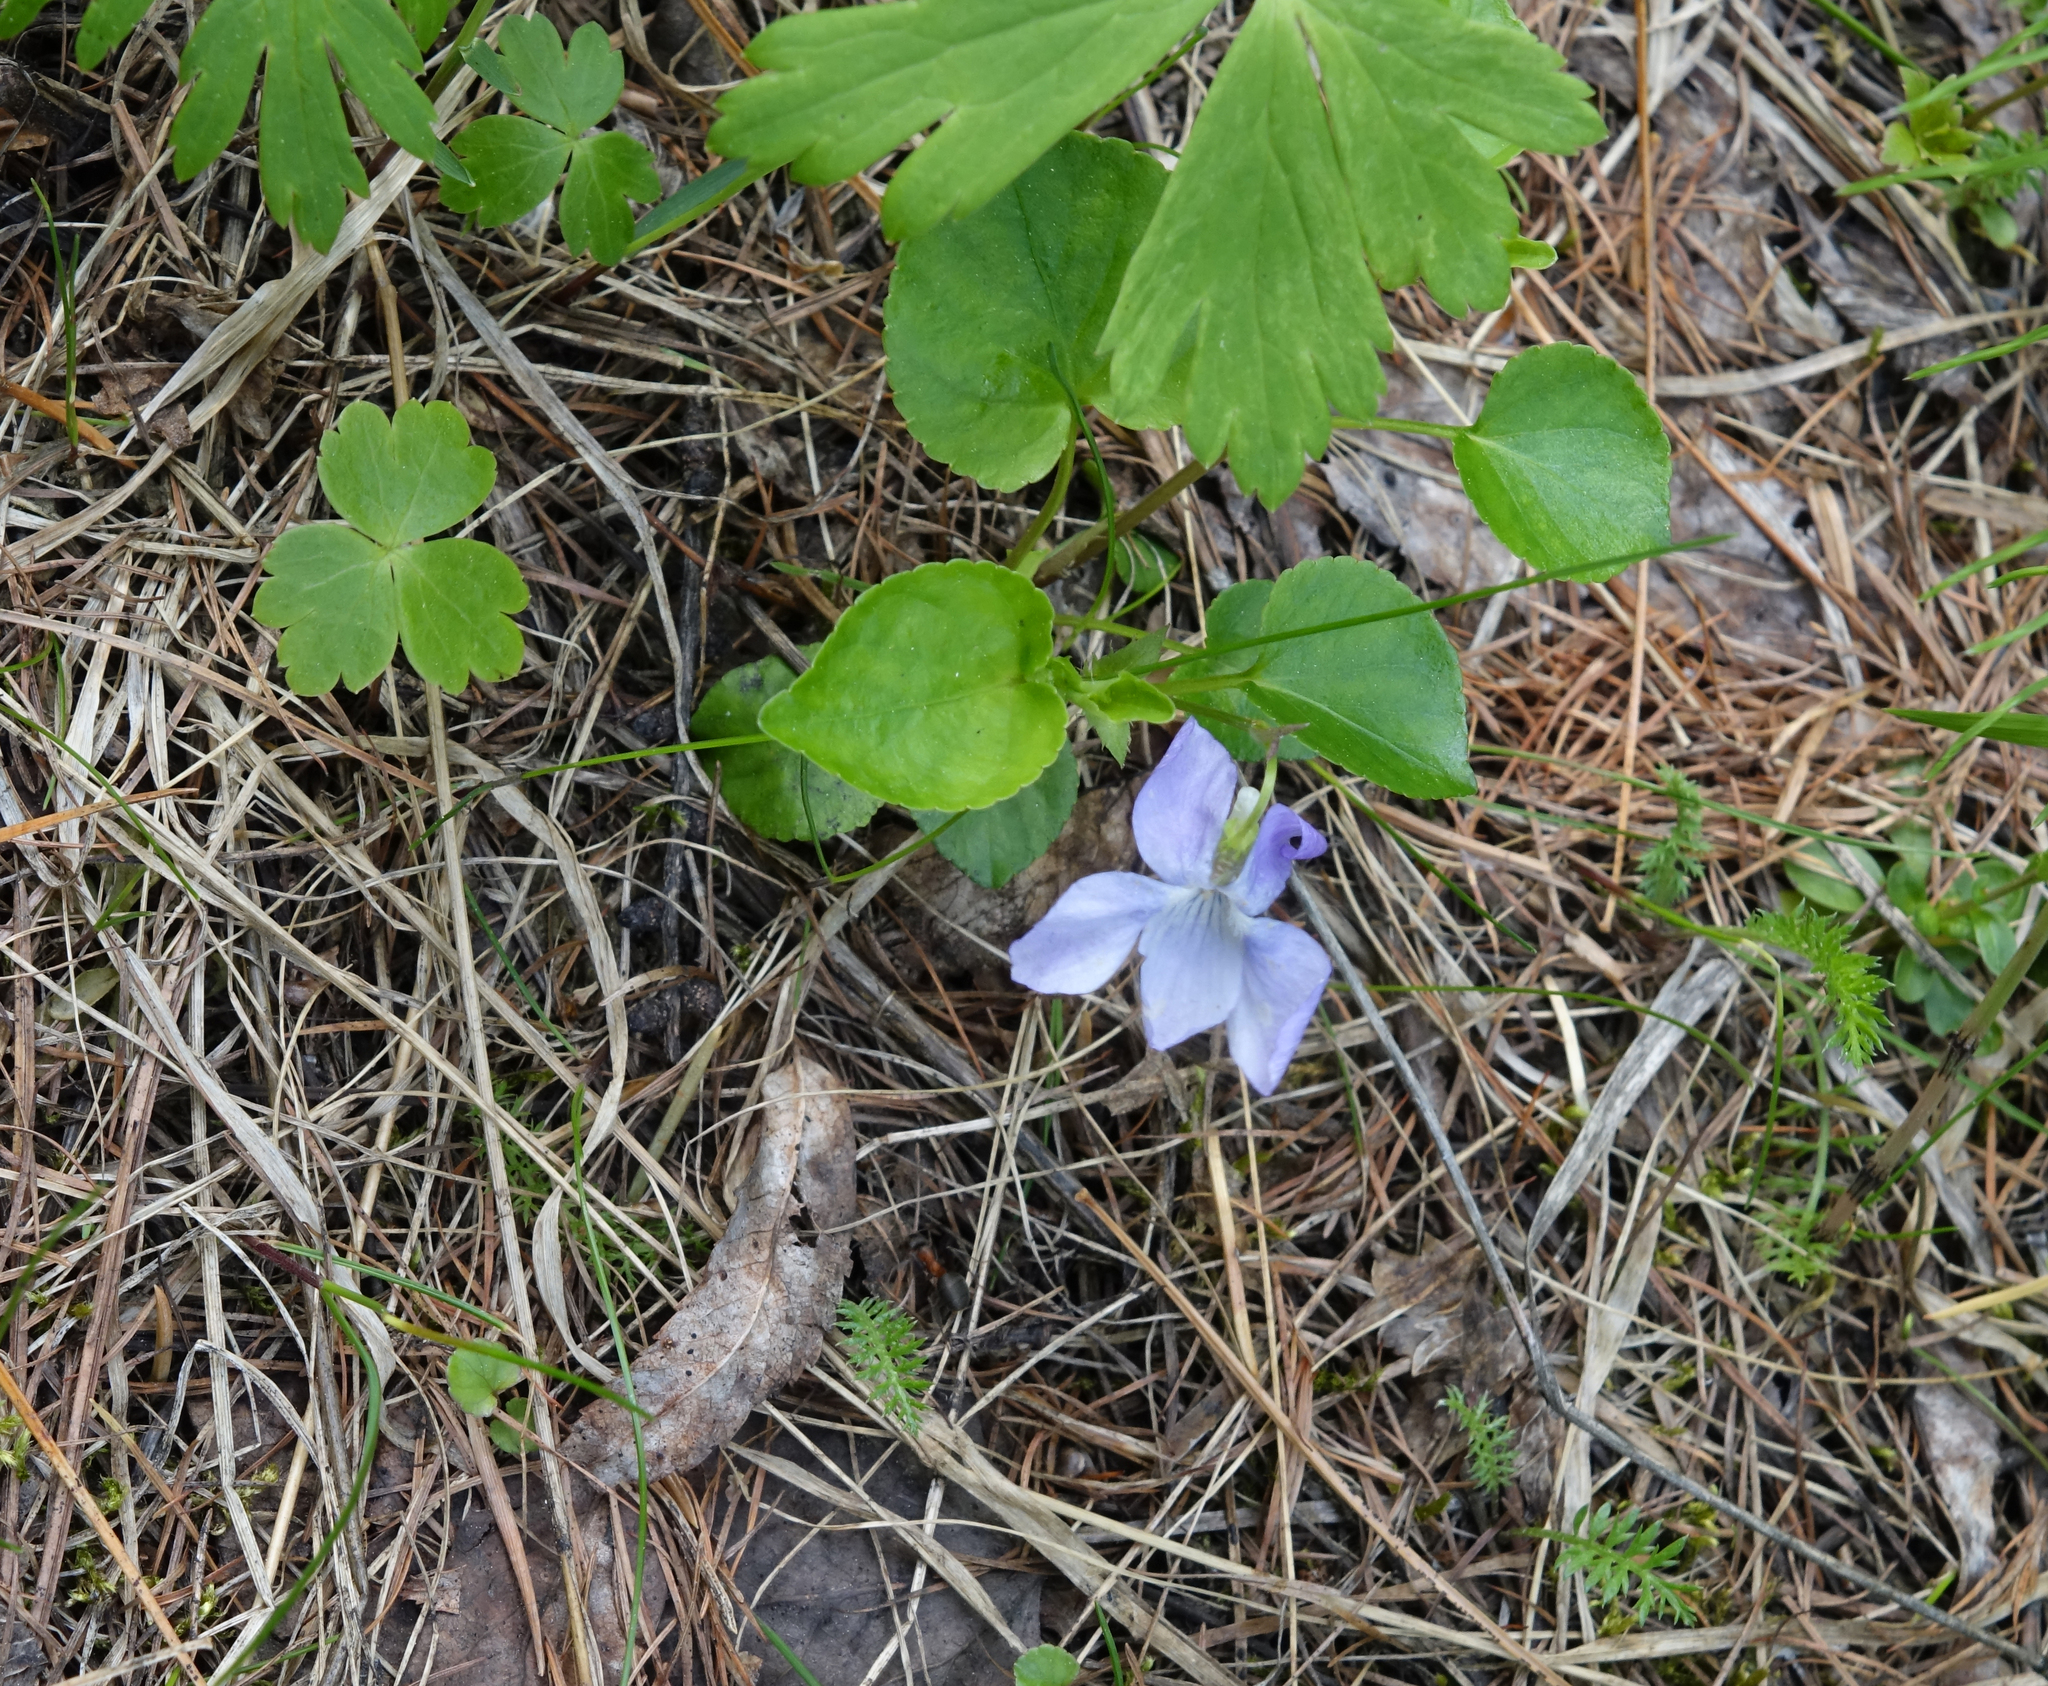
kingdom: Plantae
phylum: Tracheophyta
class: Magnoliopsida
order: Malpighiales
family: Violaceae
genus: Viola
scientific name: Viola sacchalinensis
